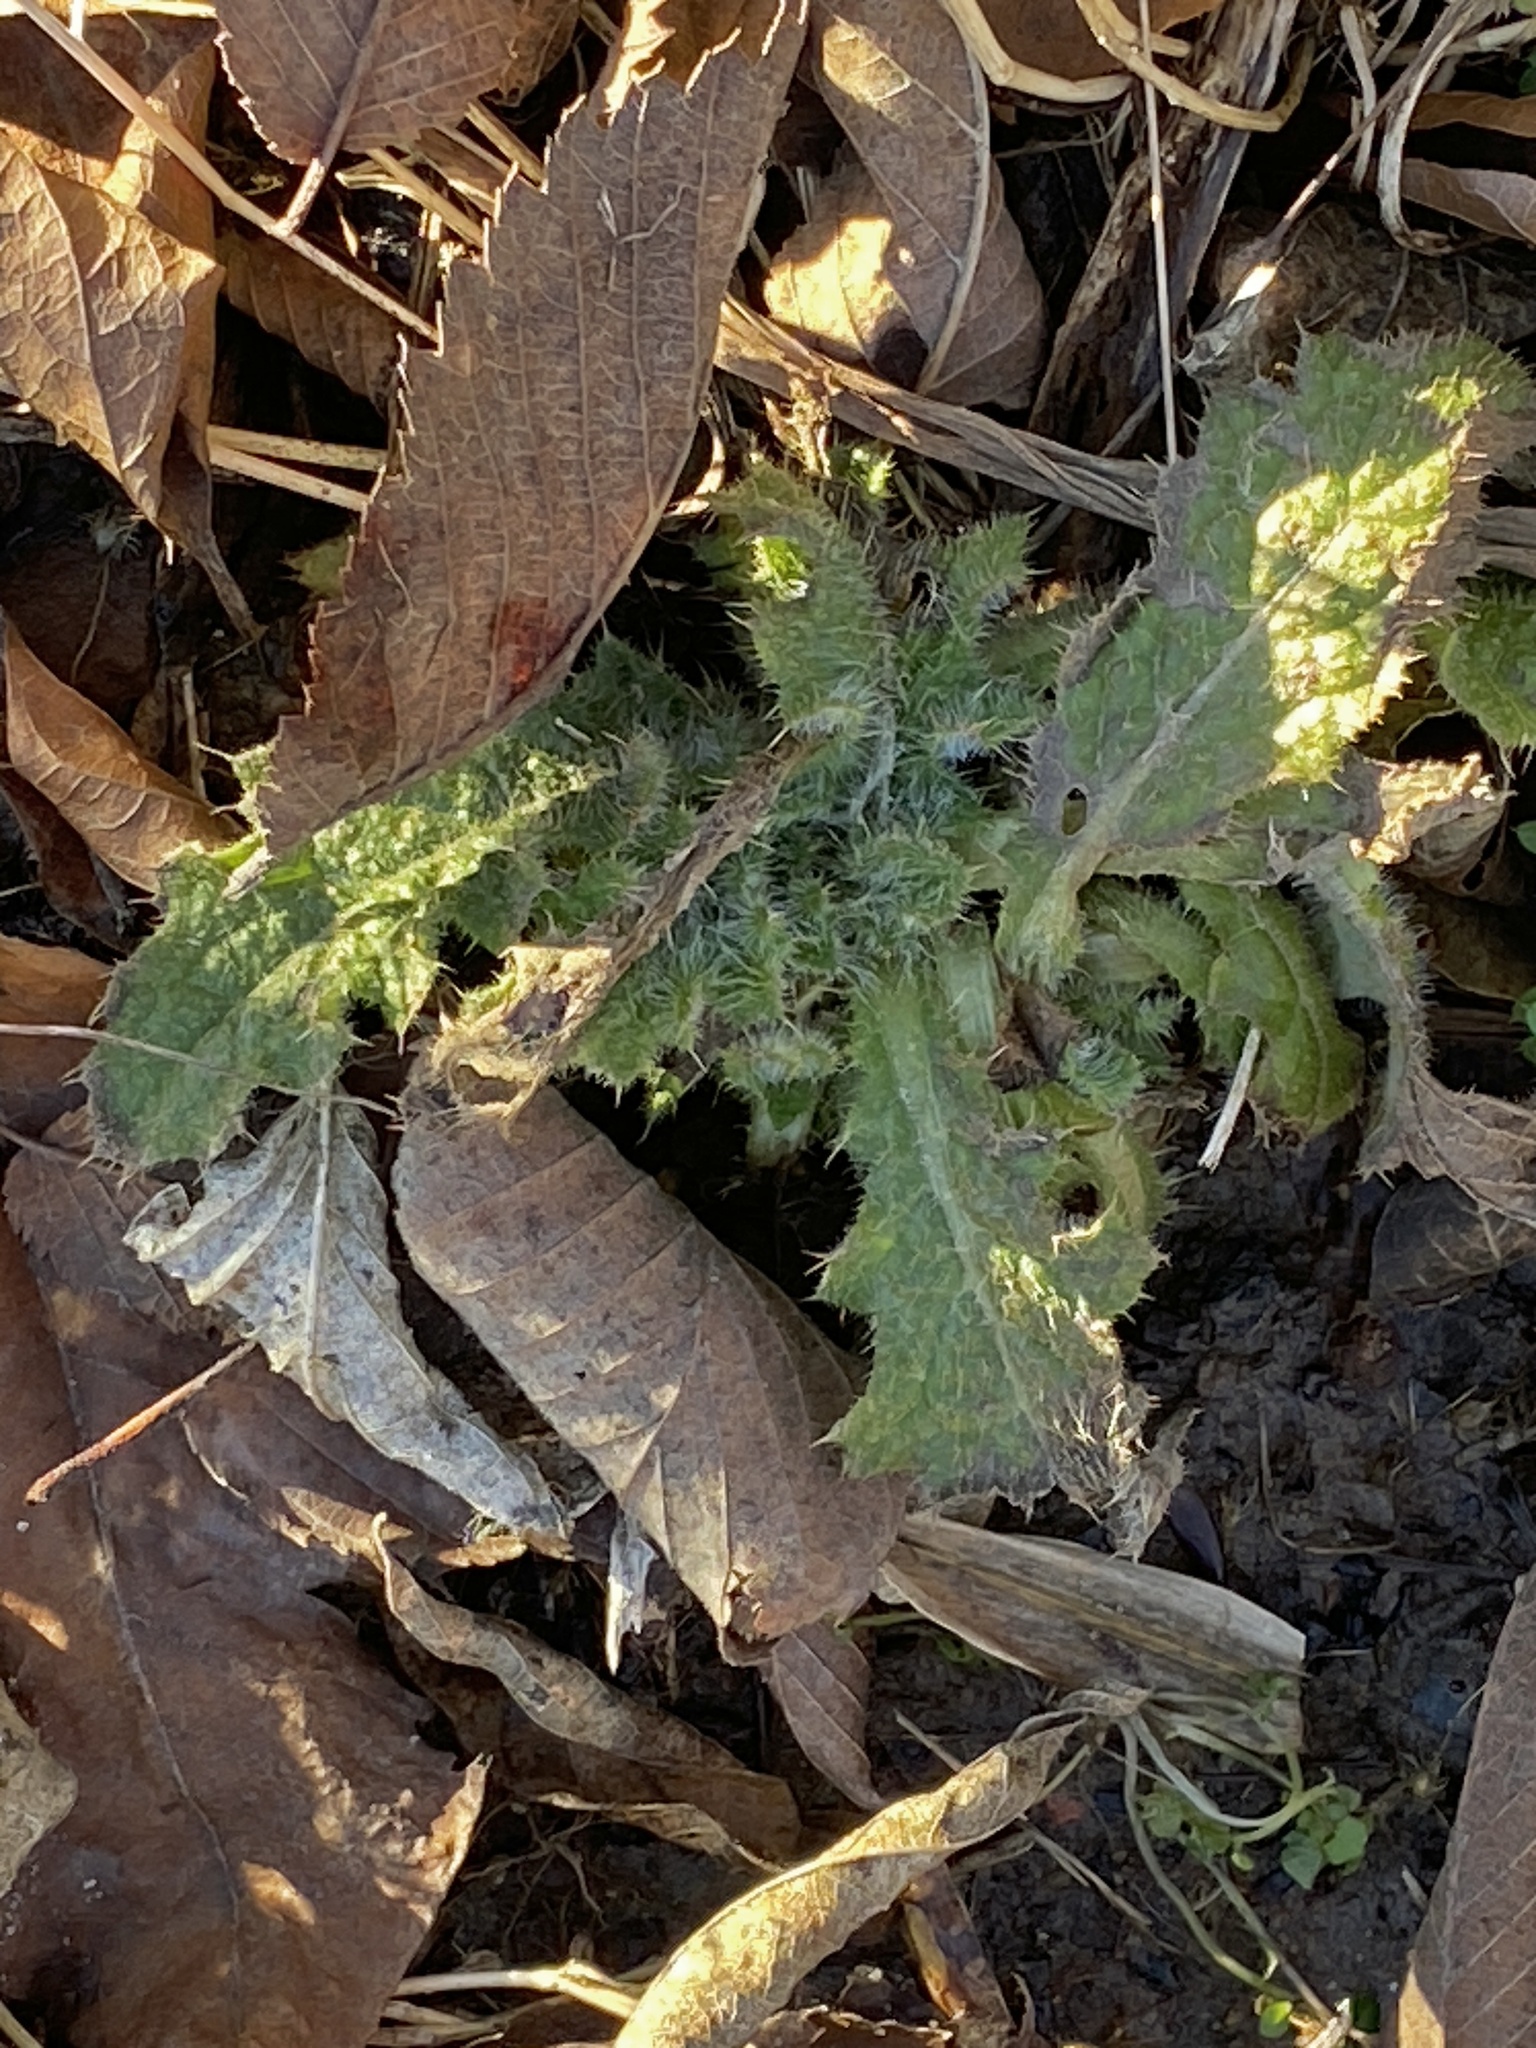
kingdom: Plantae
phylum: Tracheophyta
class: Magnoliopsida
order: Asterales
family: Asteraceae
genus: Cirsium
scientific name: Cirsium vulgare
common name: Bull thistle
